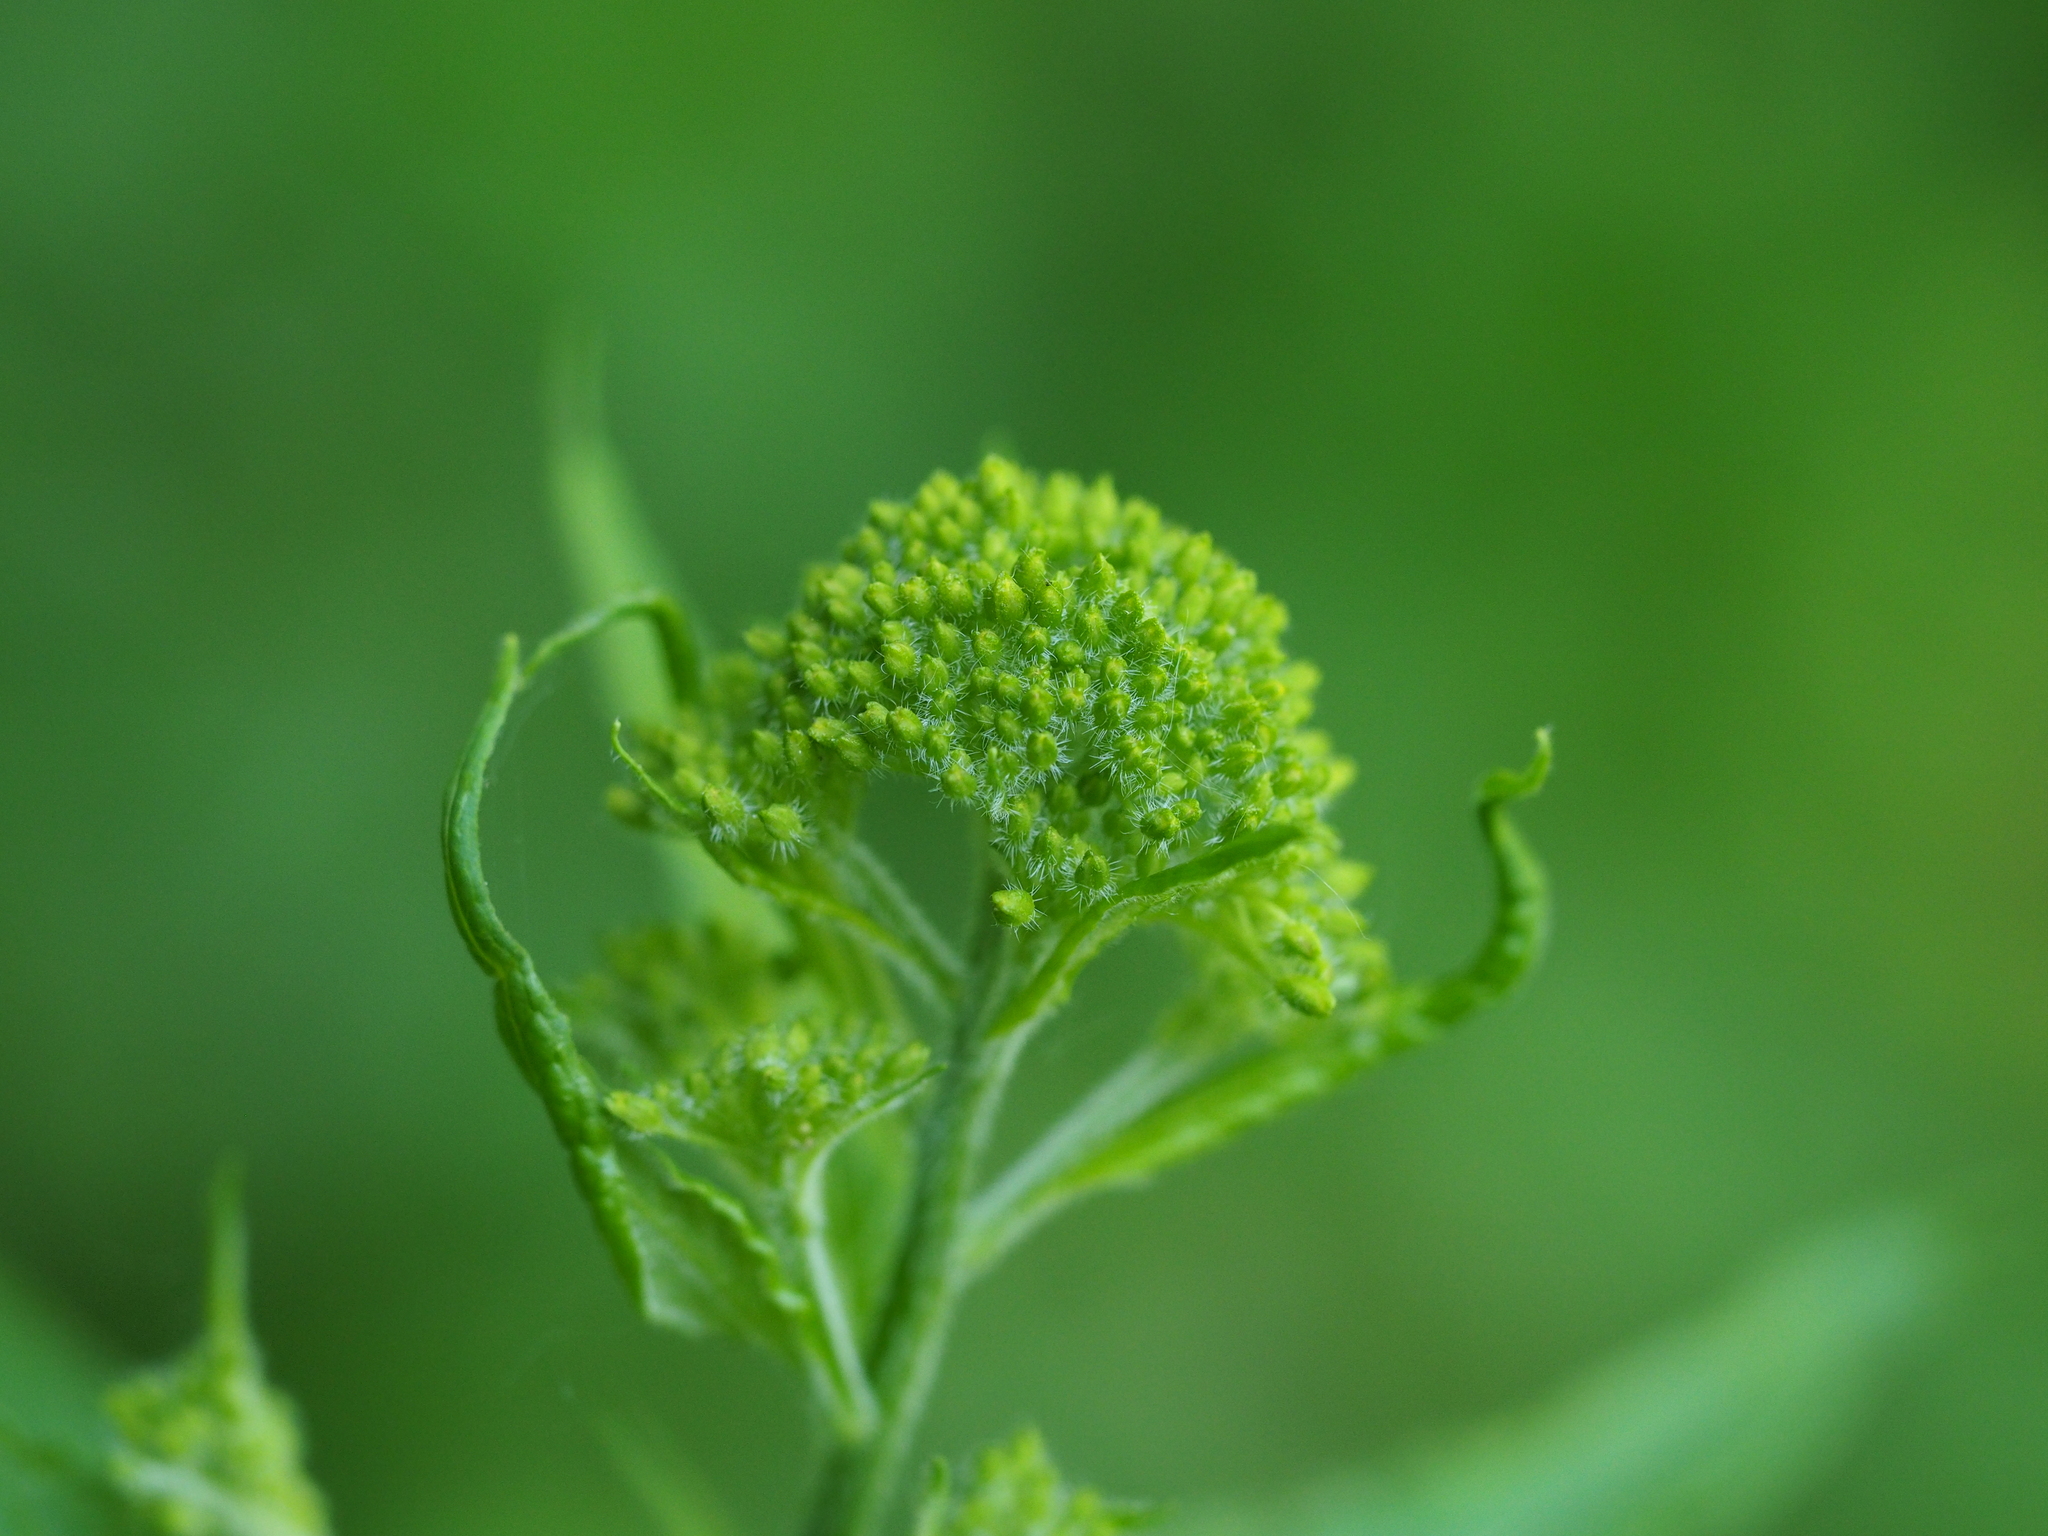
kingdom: Plantae
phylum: Tracheophyta
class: Magnoliopsida
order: Brassicales
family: Brassicaceae
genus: Sisymbrium
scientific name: Sisymbrium strictissimum
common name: Perennial rocket
